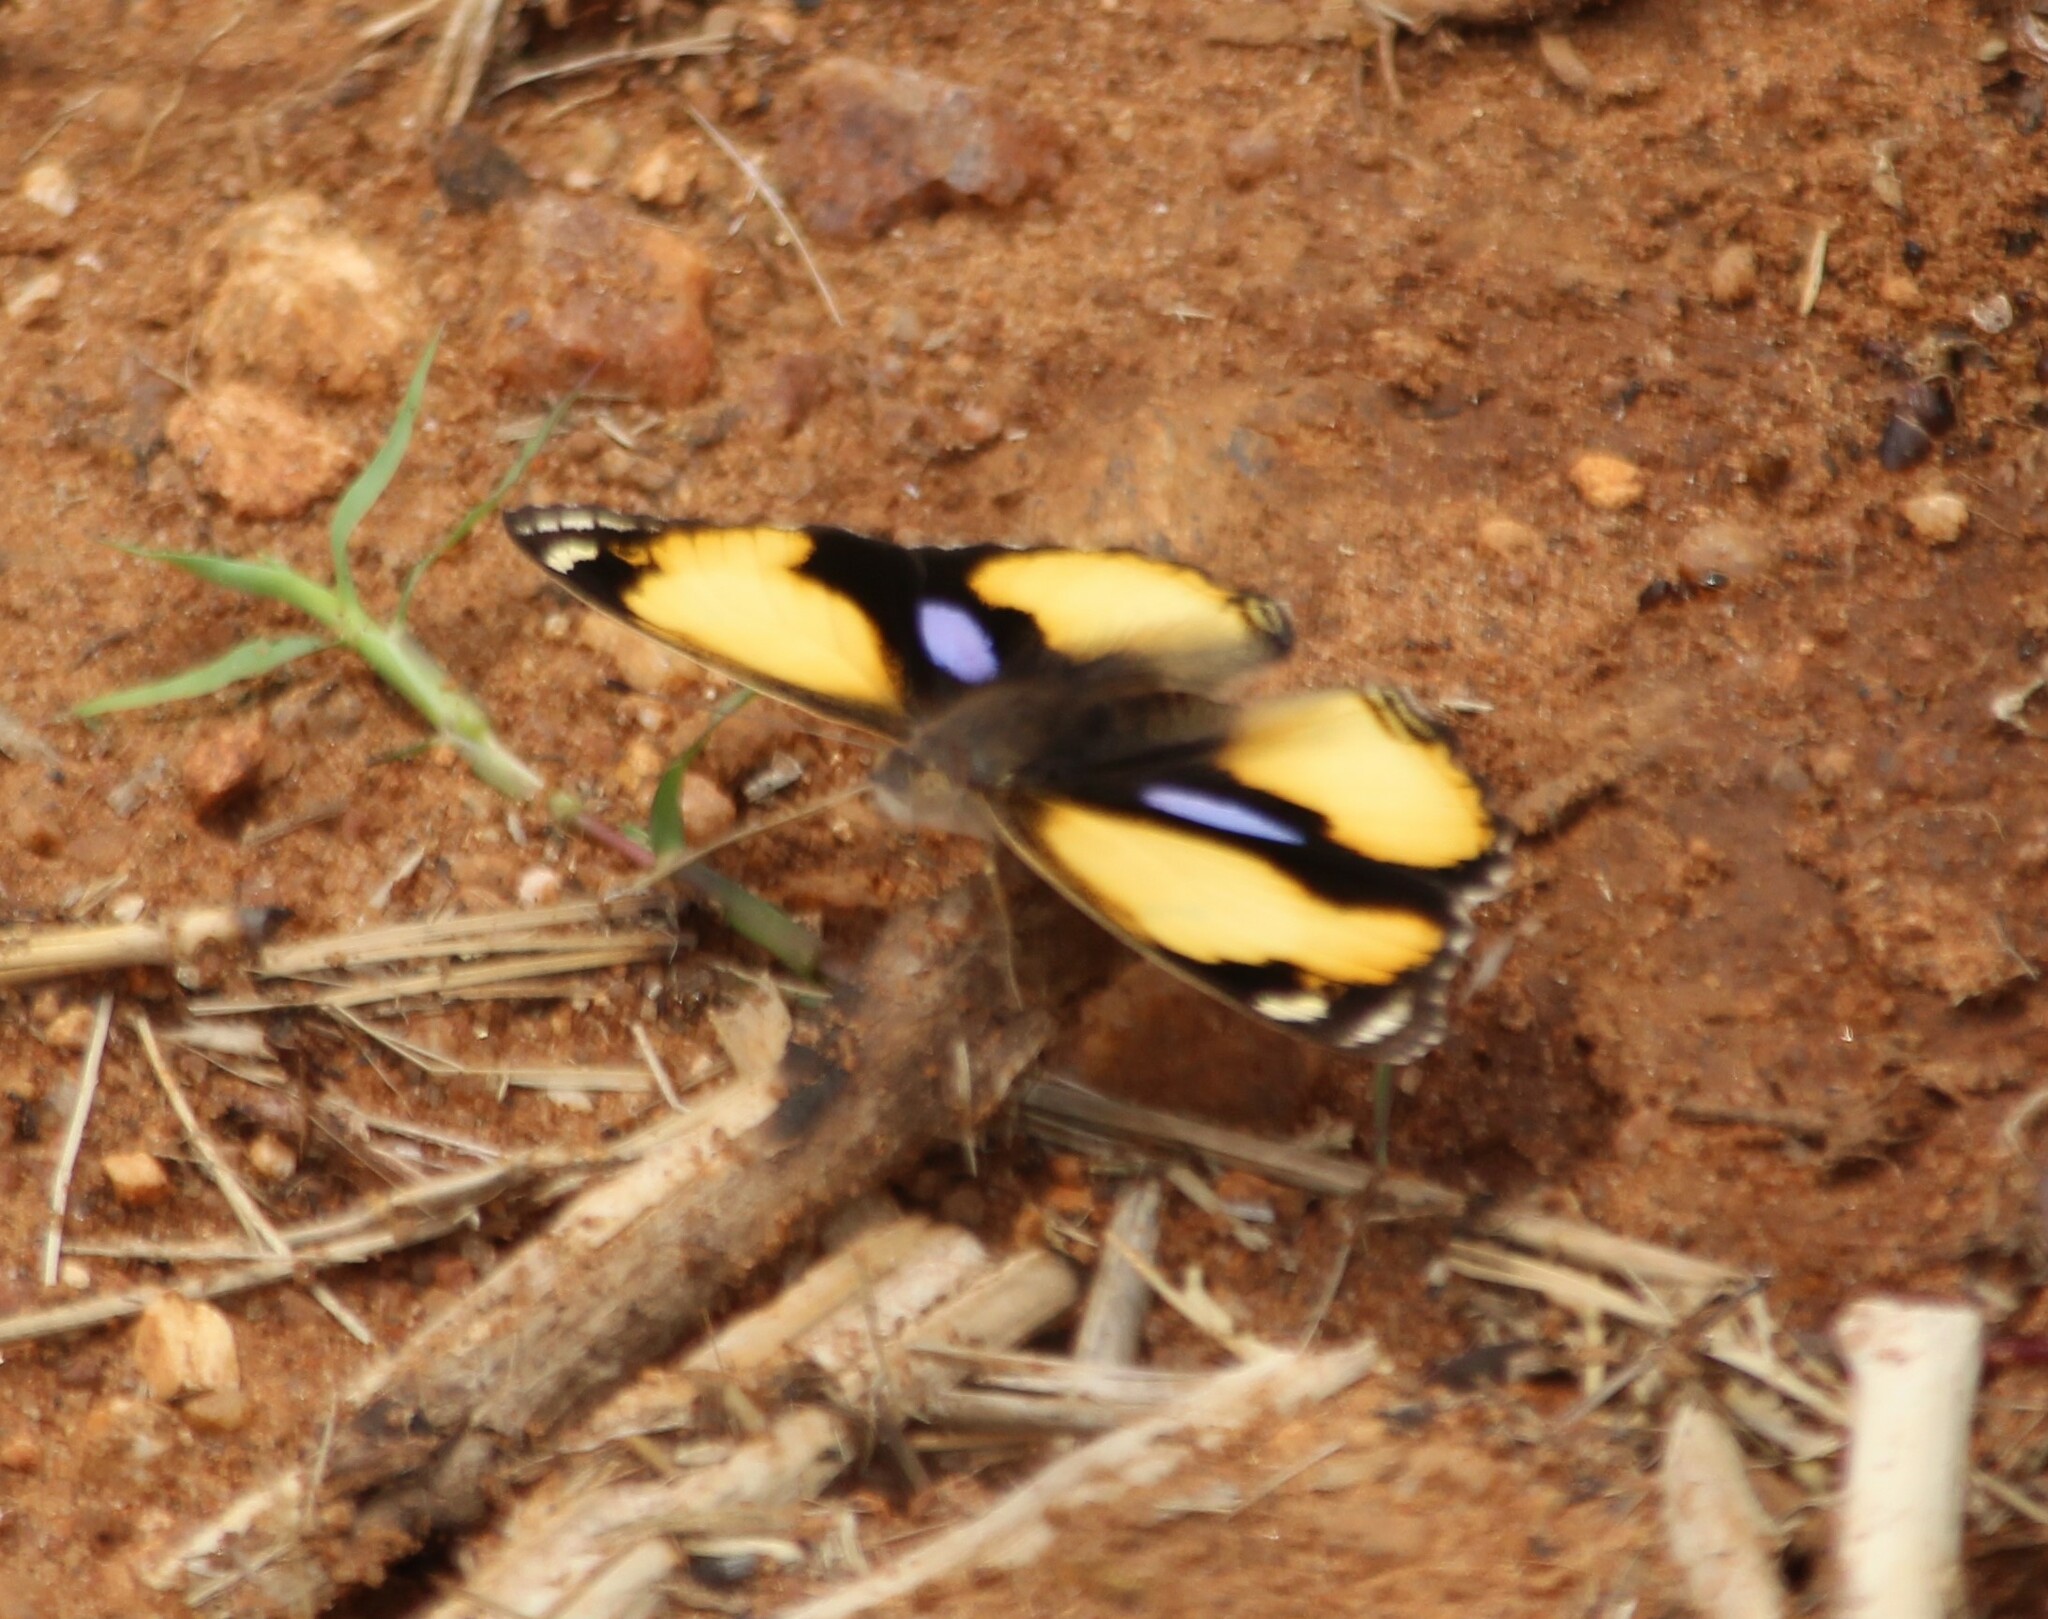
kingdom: Animalia
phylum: Arthropoda
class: Insecta
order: Lepidoptera
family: Nymphalidae
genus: Junonia
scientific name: Junonia hierta
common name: Yellow pansy
